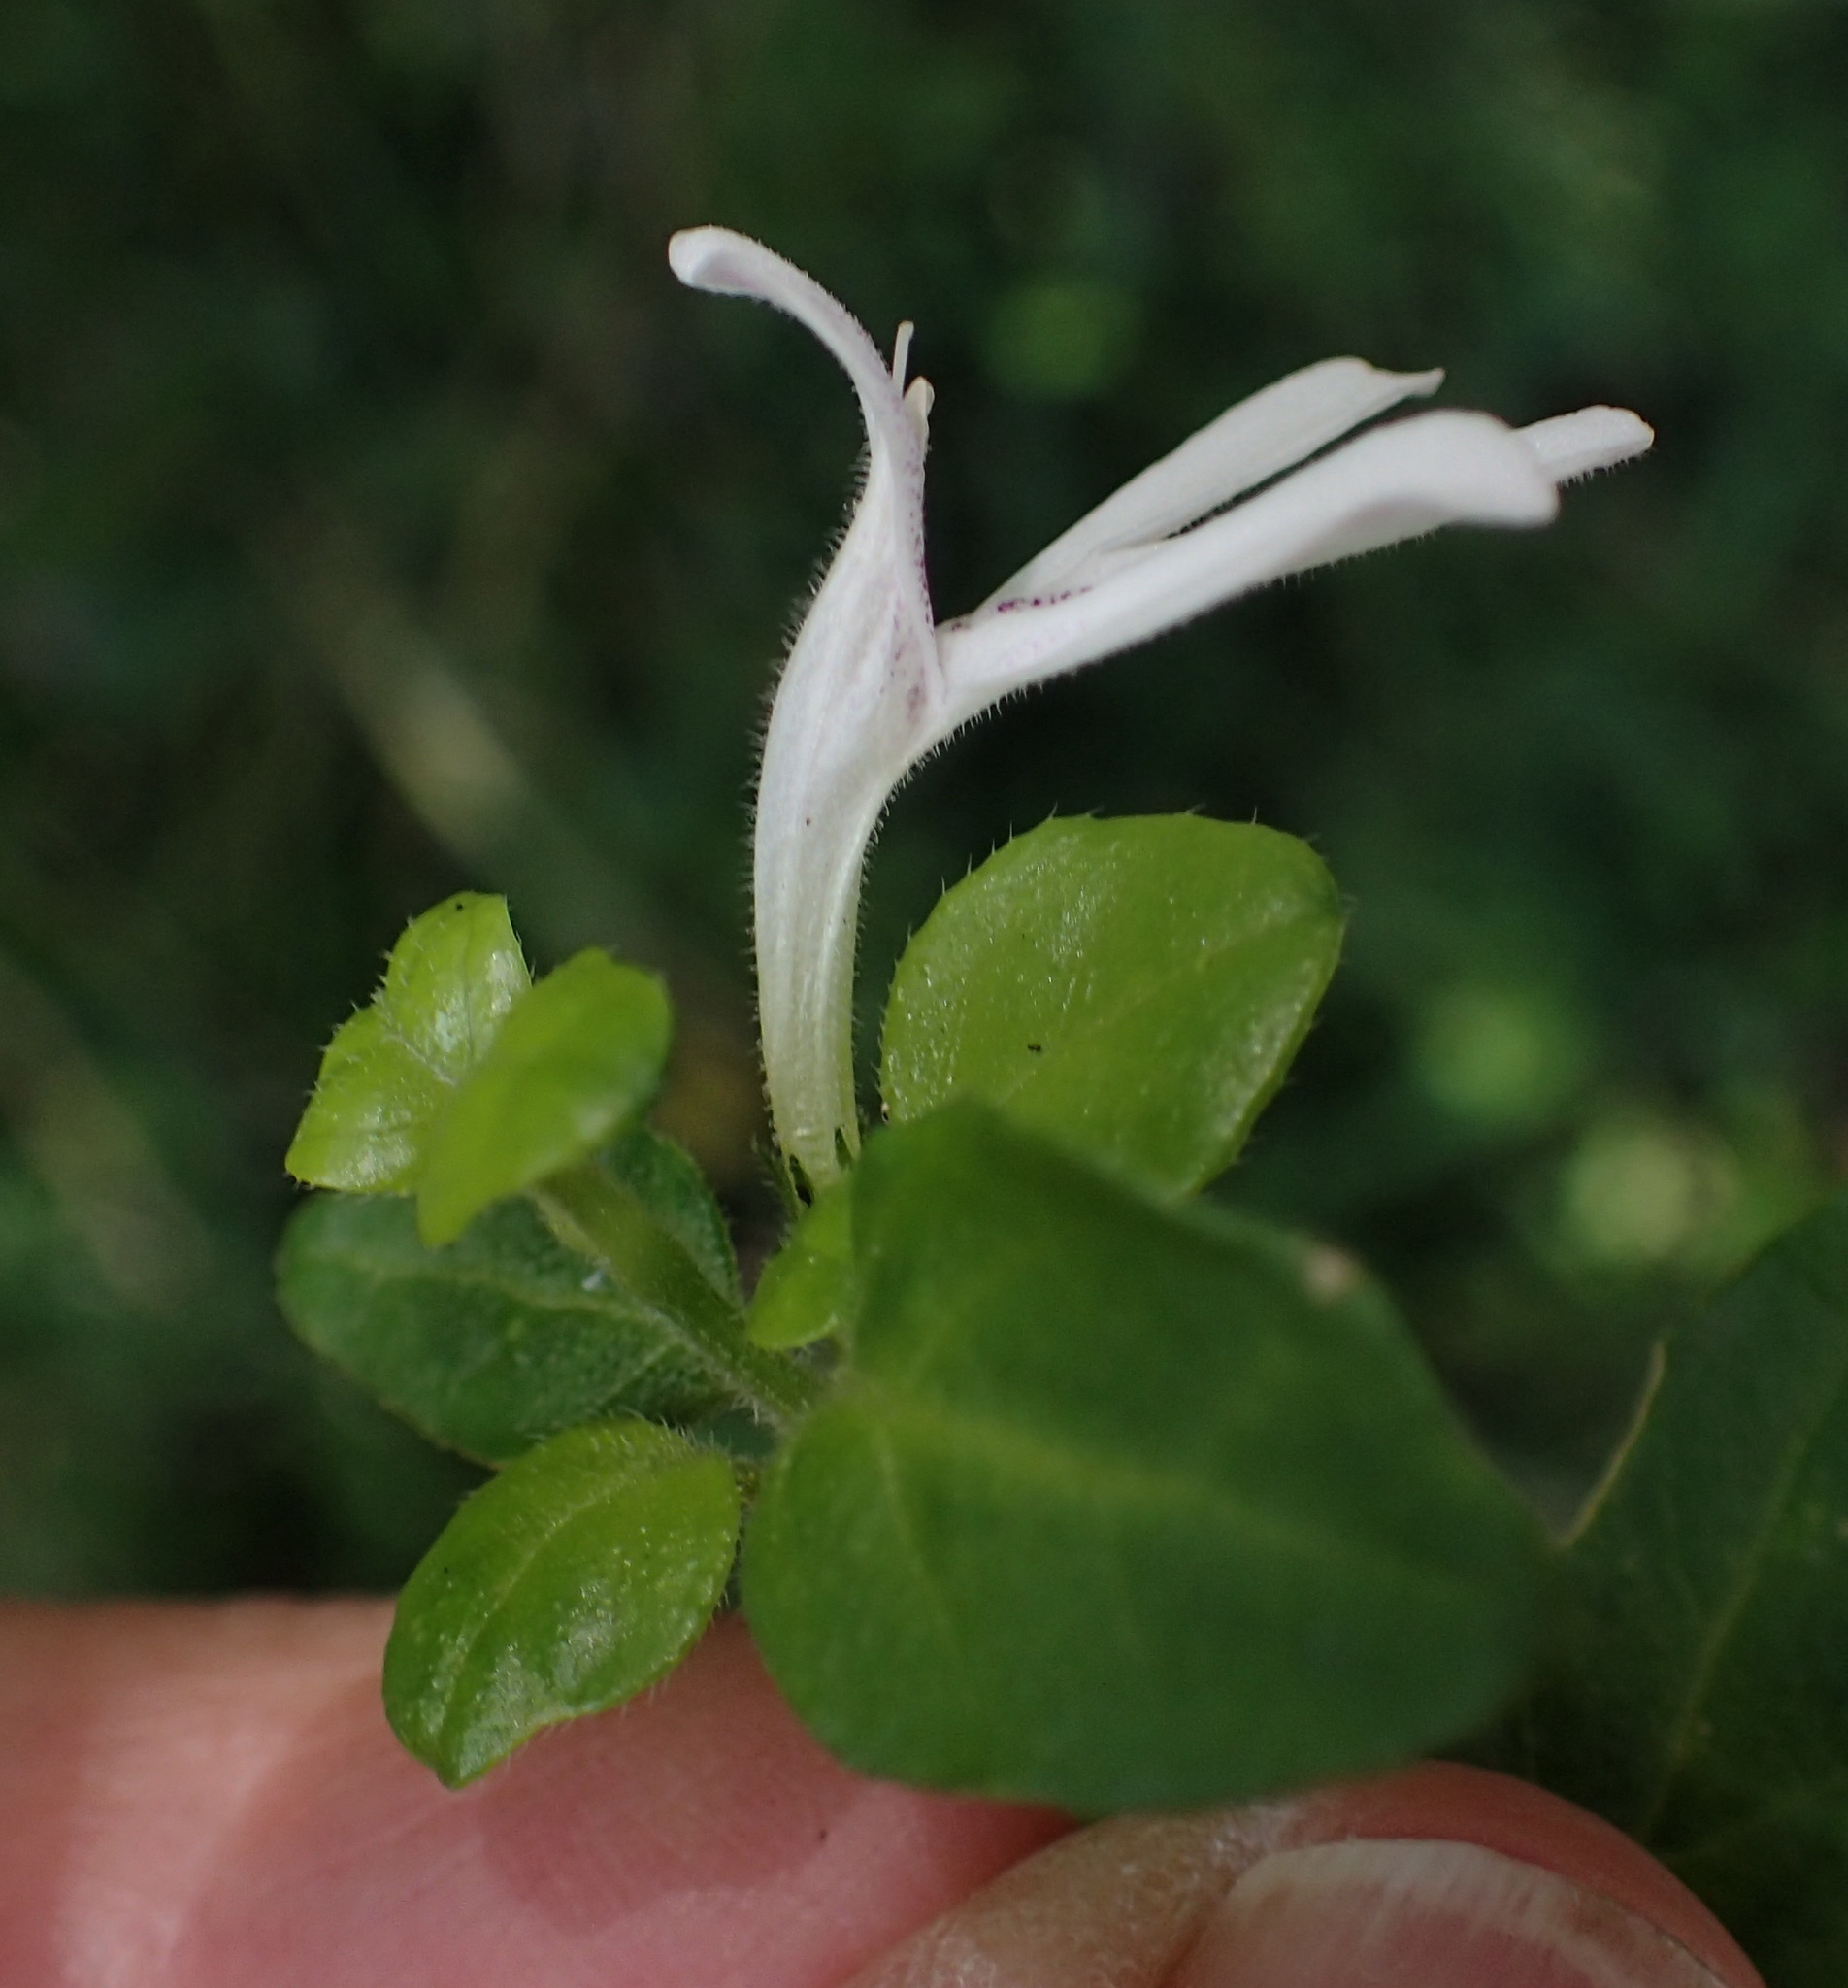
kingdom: Plantae
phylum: Tracheophyta
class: Magnoliopsida
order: Lamiales
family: Acanthaceae
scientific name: Acanthaceae
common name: Acanthaceae
